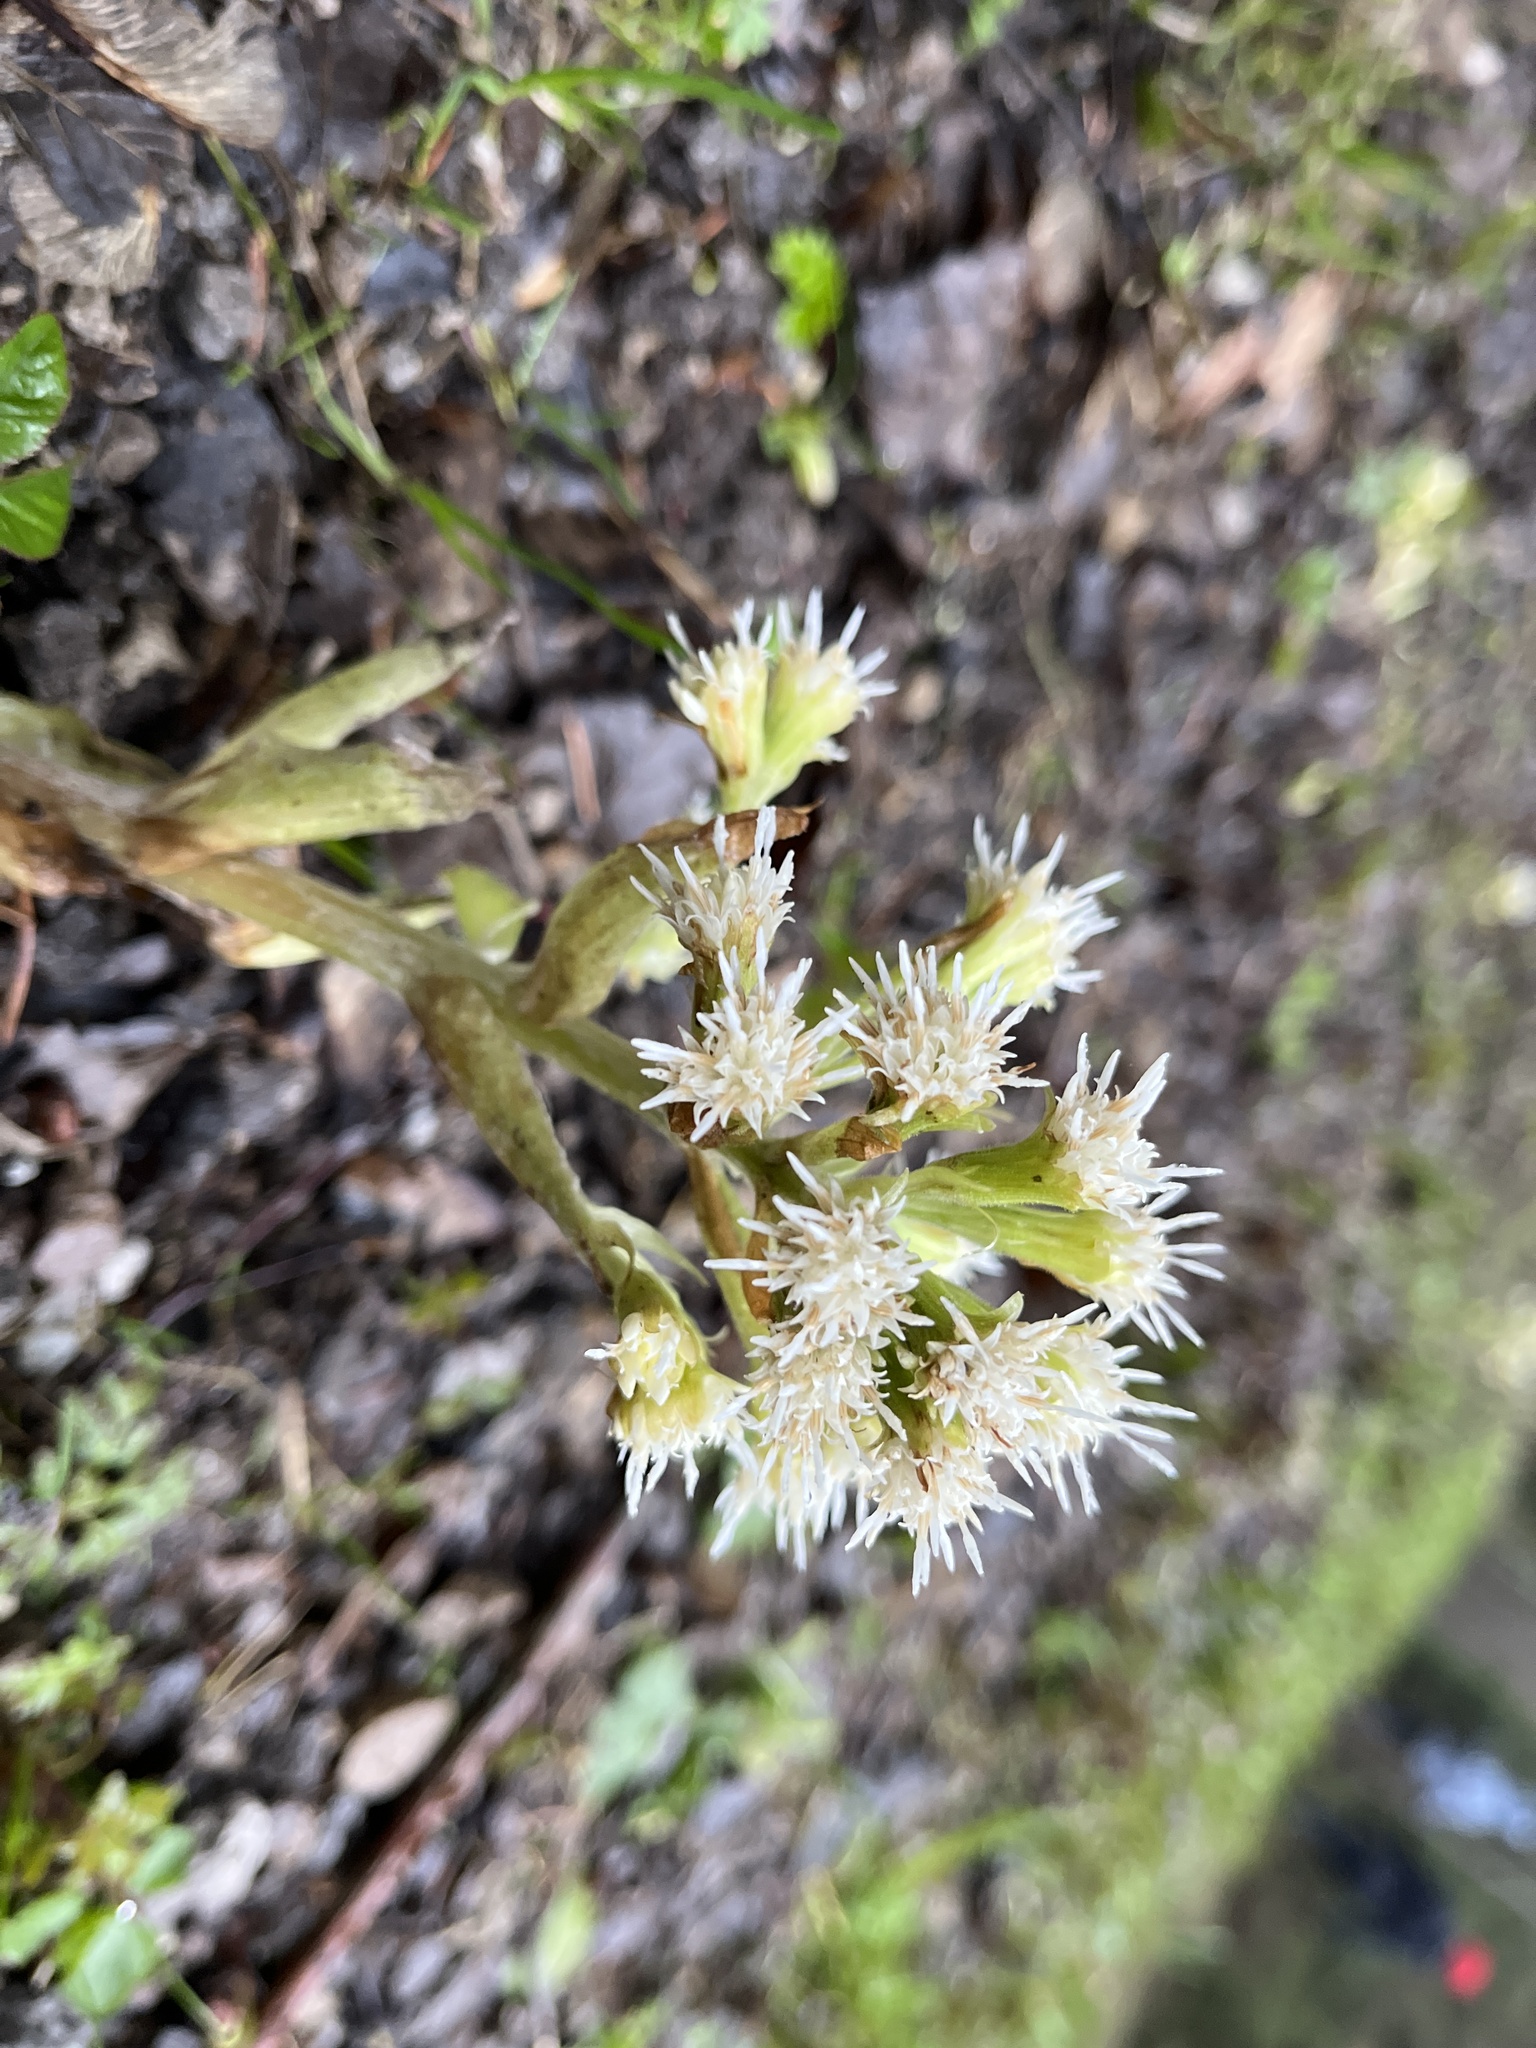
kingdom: Plantae
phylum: Tracheophyta
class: Magnoliopsida
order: Asterales
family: Asteraceae
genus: Petasites
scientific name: Petasites albus
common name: White butterbur
